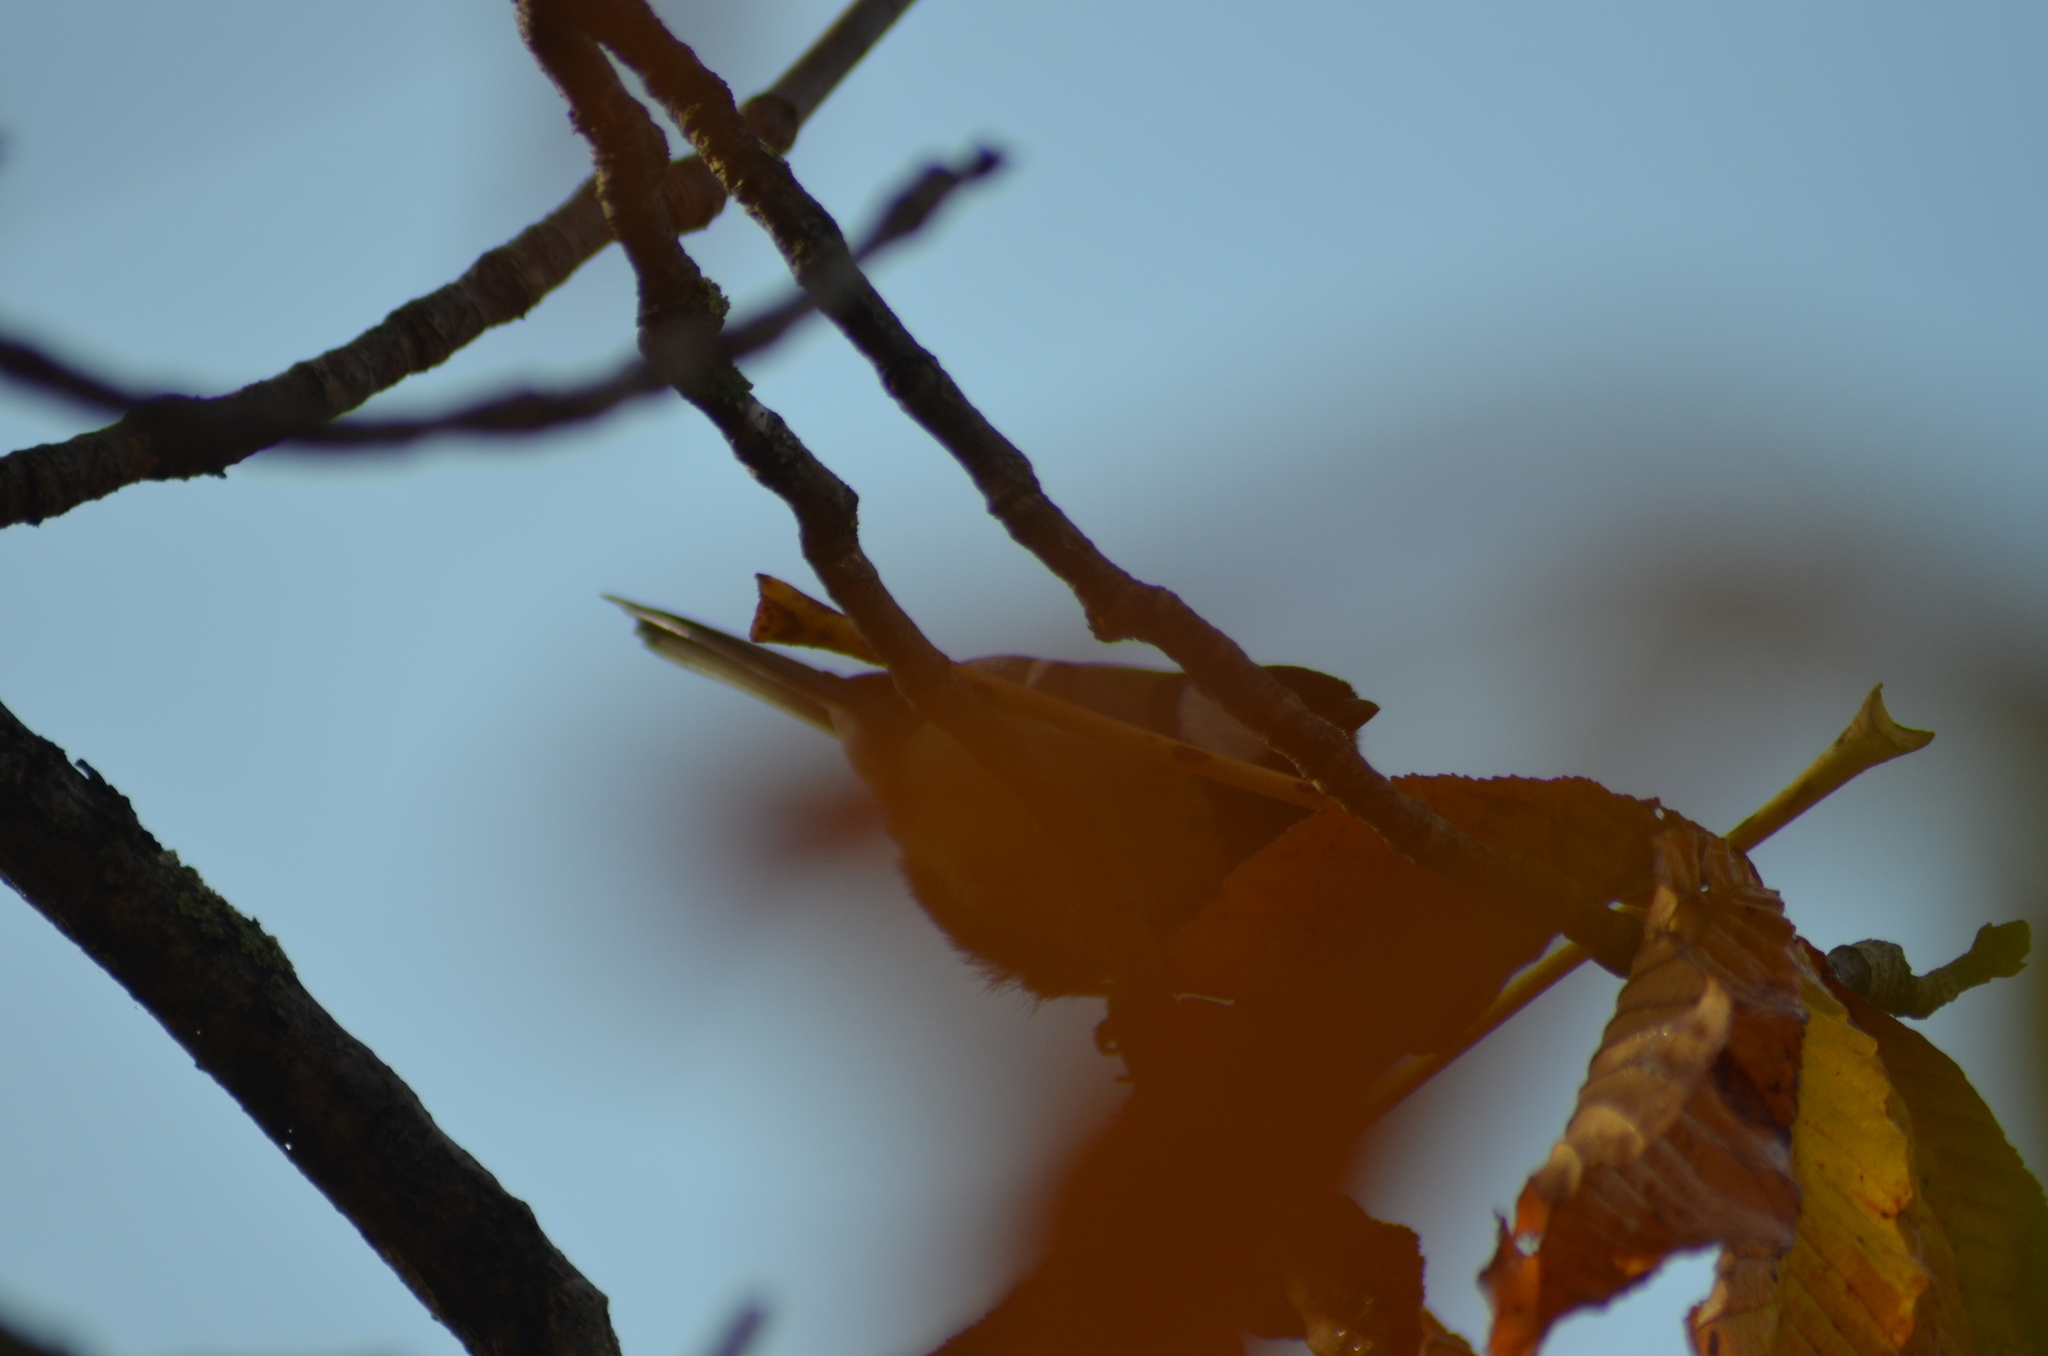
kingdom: Animalia
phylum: Chordata
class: Aves
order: Passeriformes
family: Paridae
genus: Parus
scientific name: Parus major
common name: Great tit
